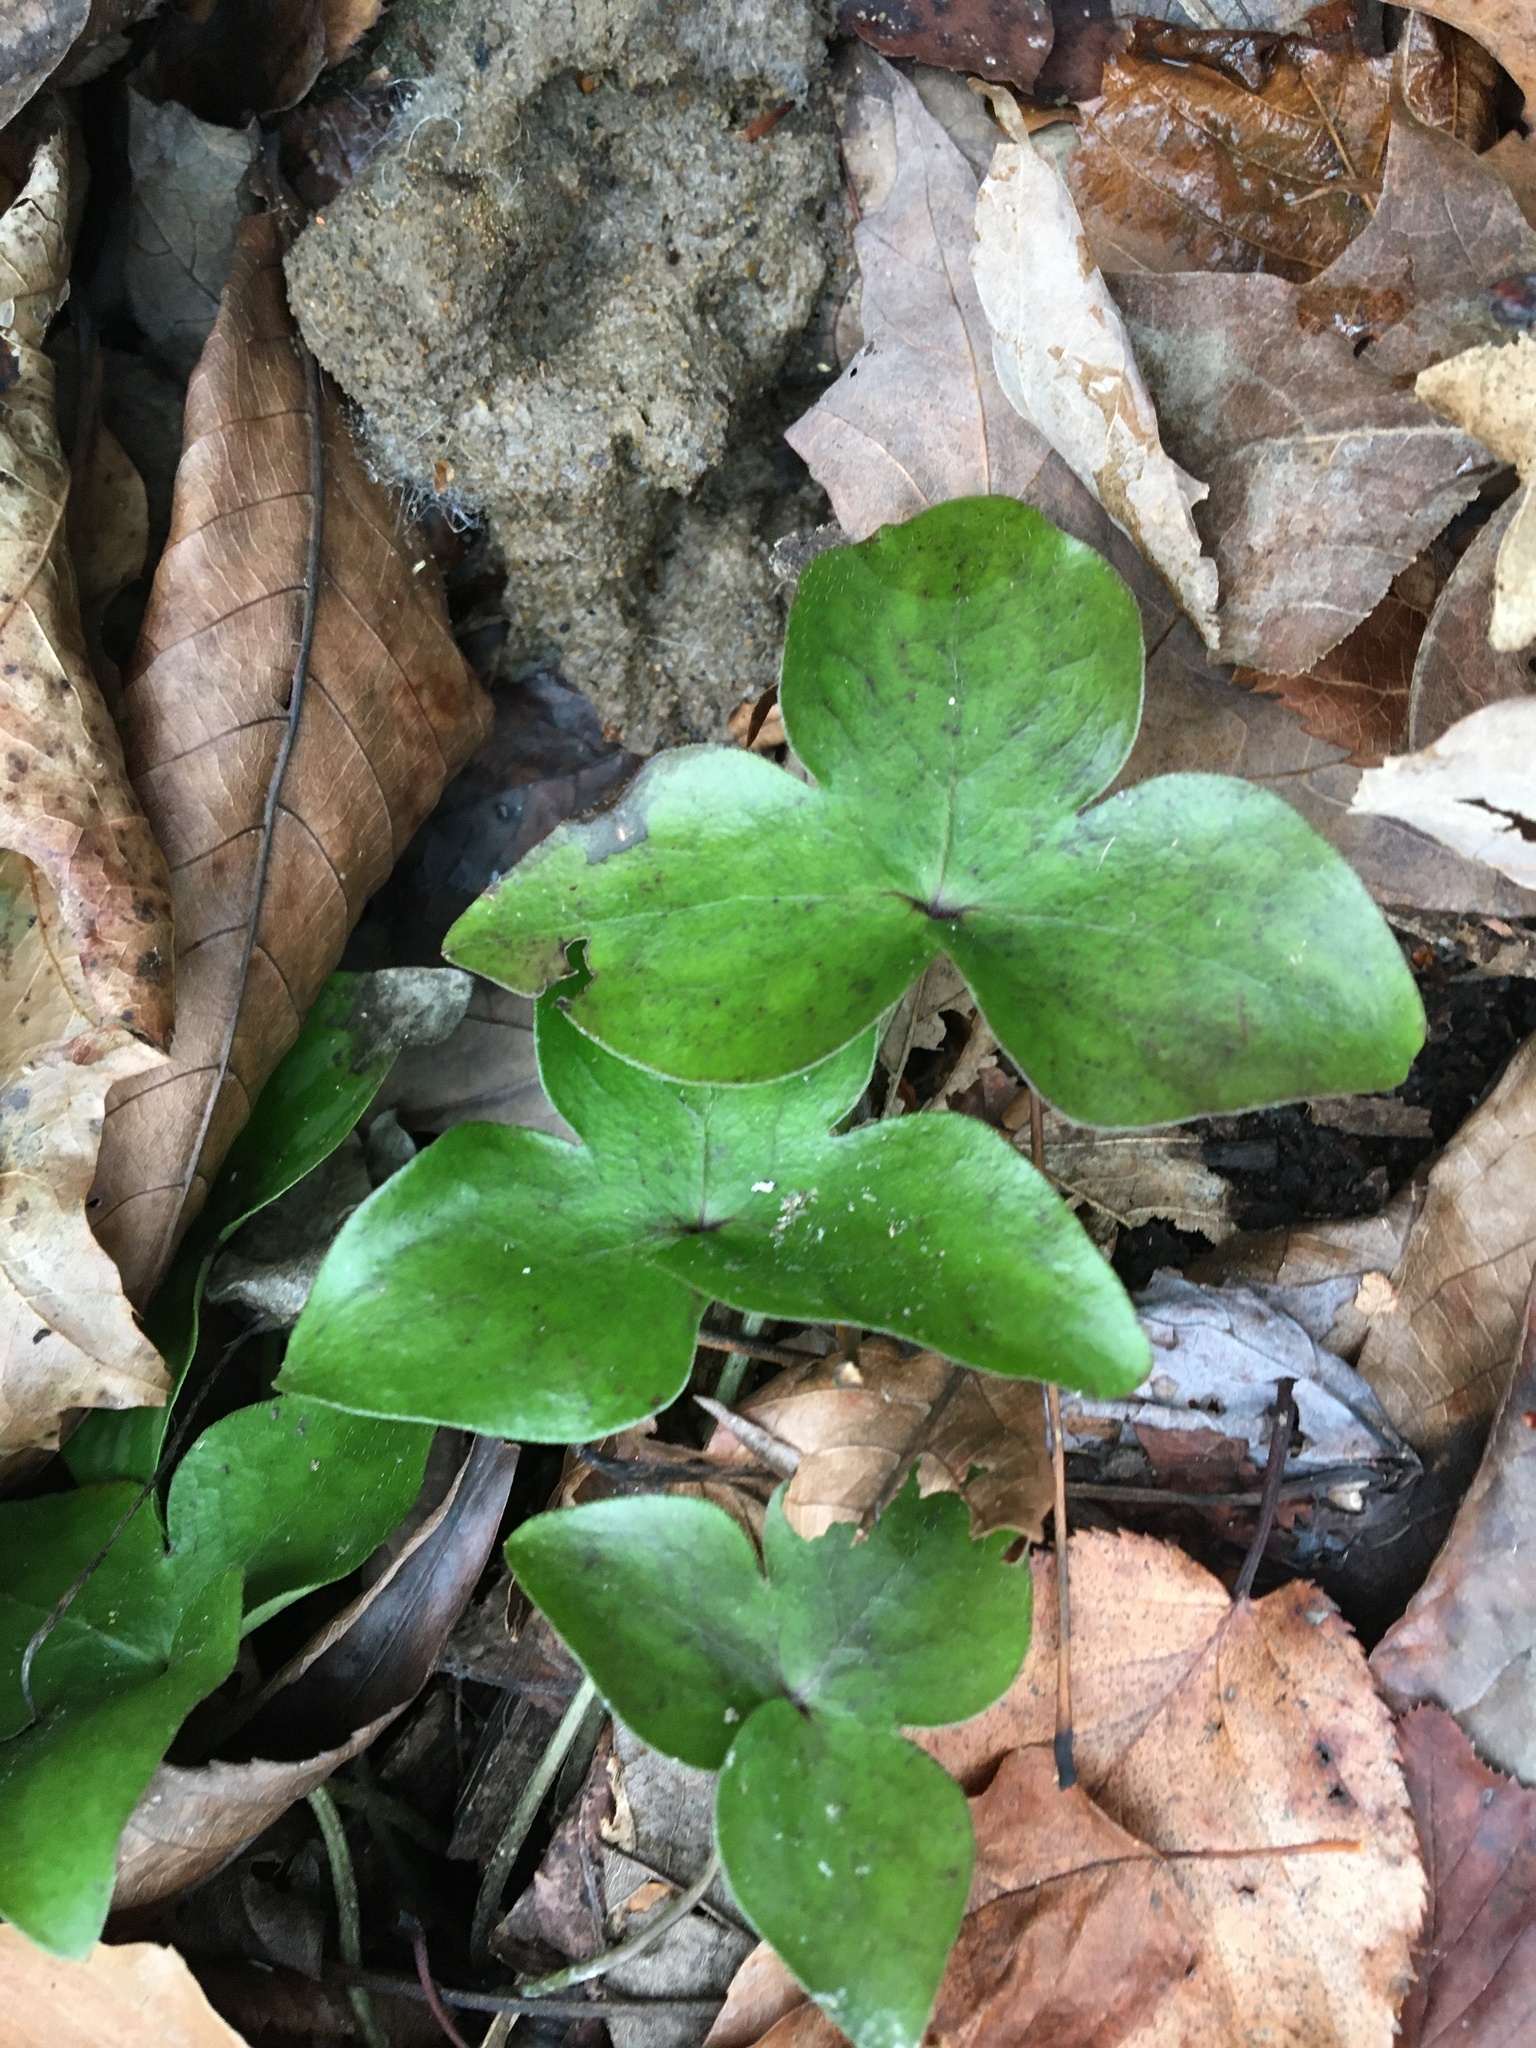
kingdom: Plantae
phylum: Tracheophyta
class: Magnoliopsida
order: Ranunculales
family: Ranunculaceae
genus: Hepatica
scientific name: Hepatica acutiloba
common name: Sharp-lobed hepatica
